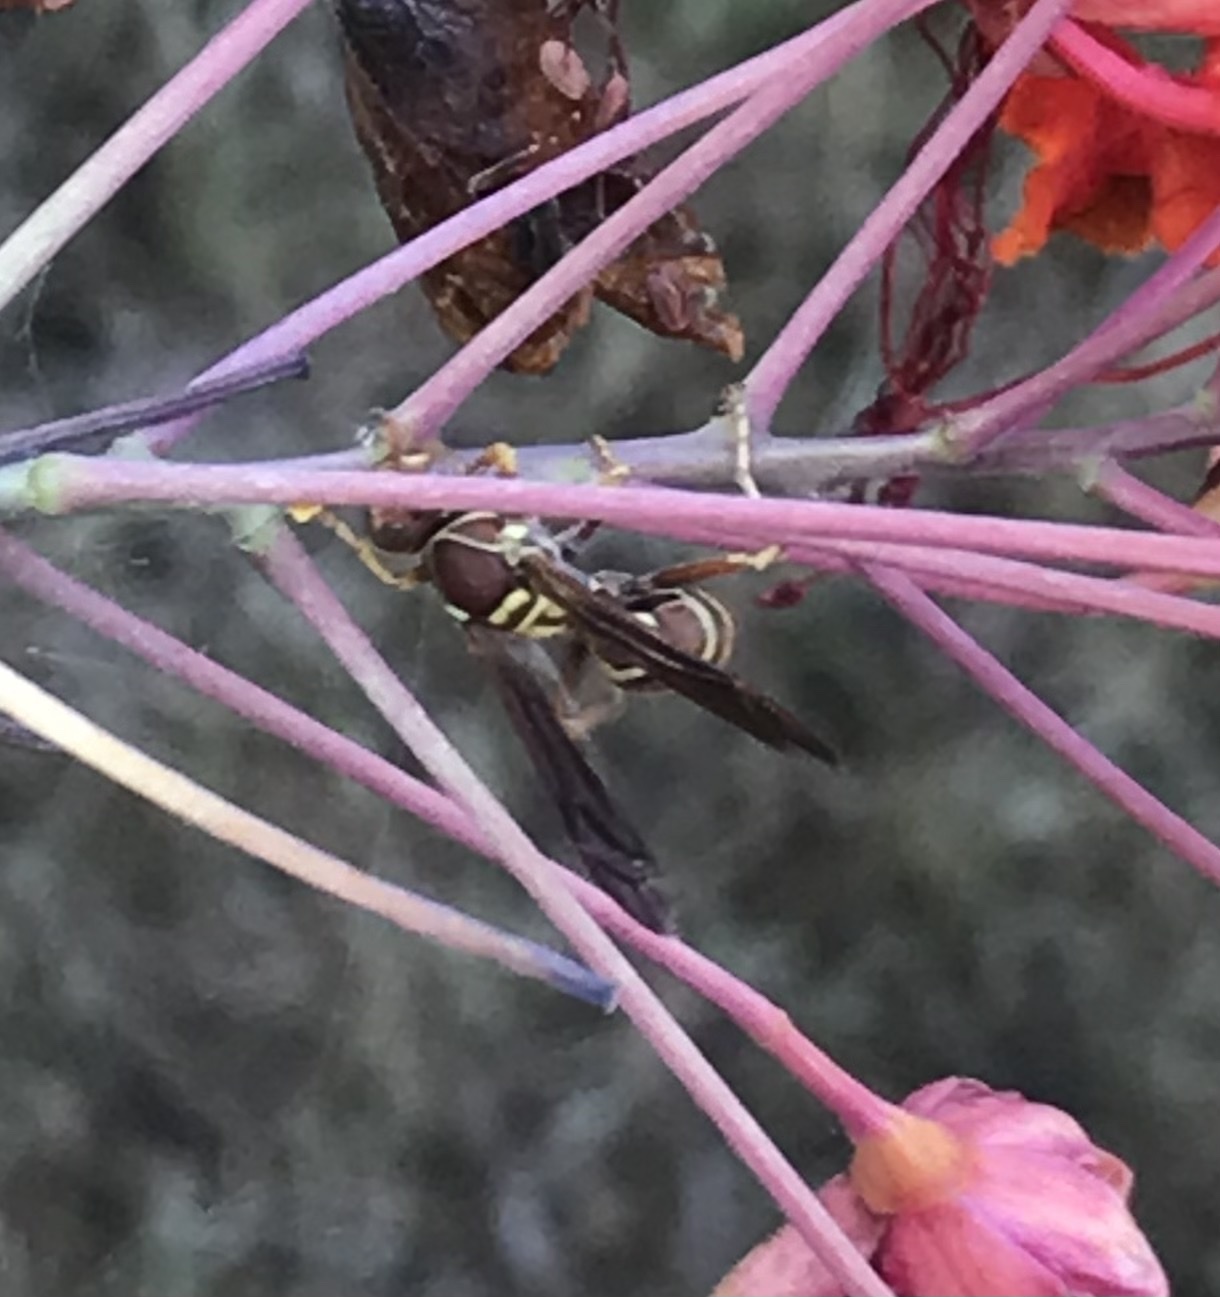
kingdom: Animalia
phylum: Arthropoda
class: Insecta
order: Hymenoptera
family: Eumenidae
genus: Polistes
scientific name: Polistes dorsalis
